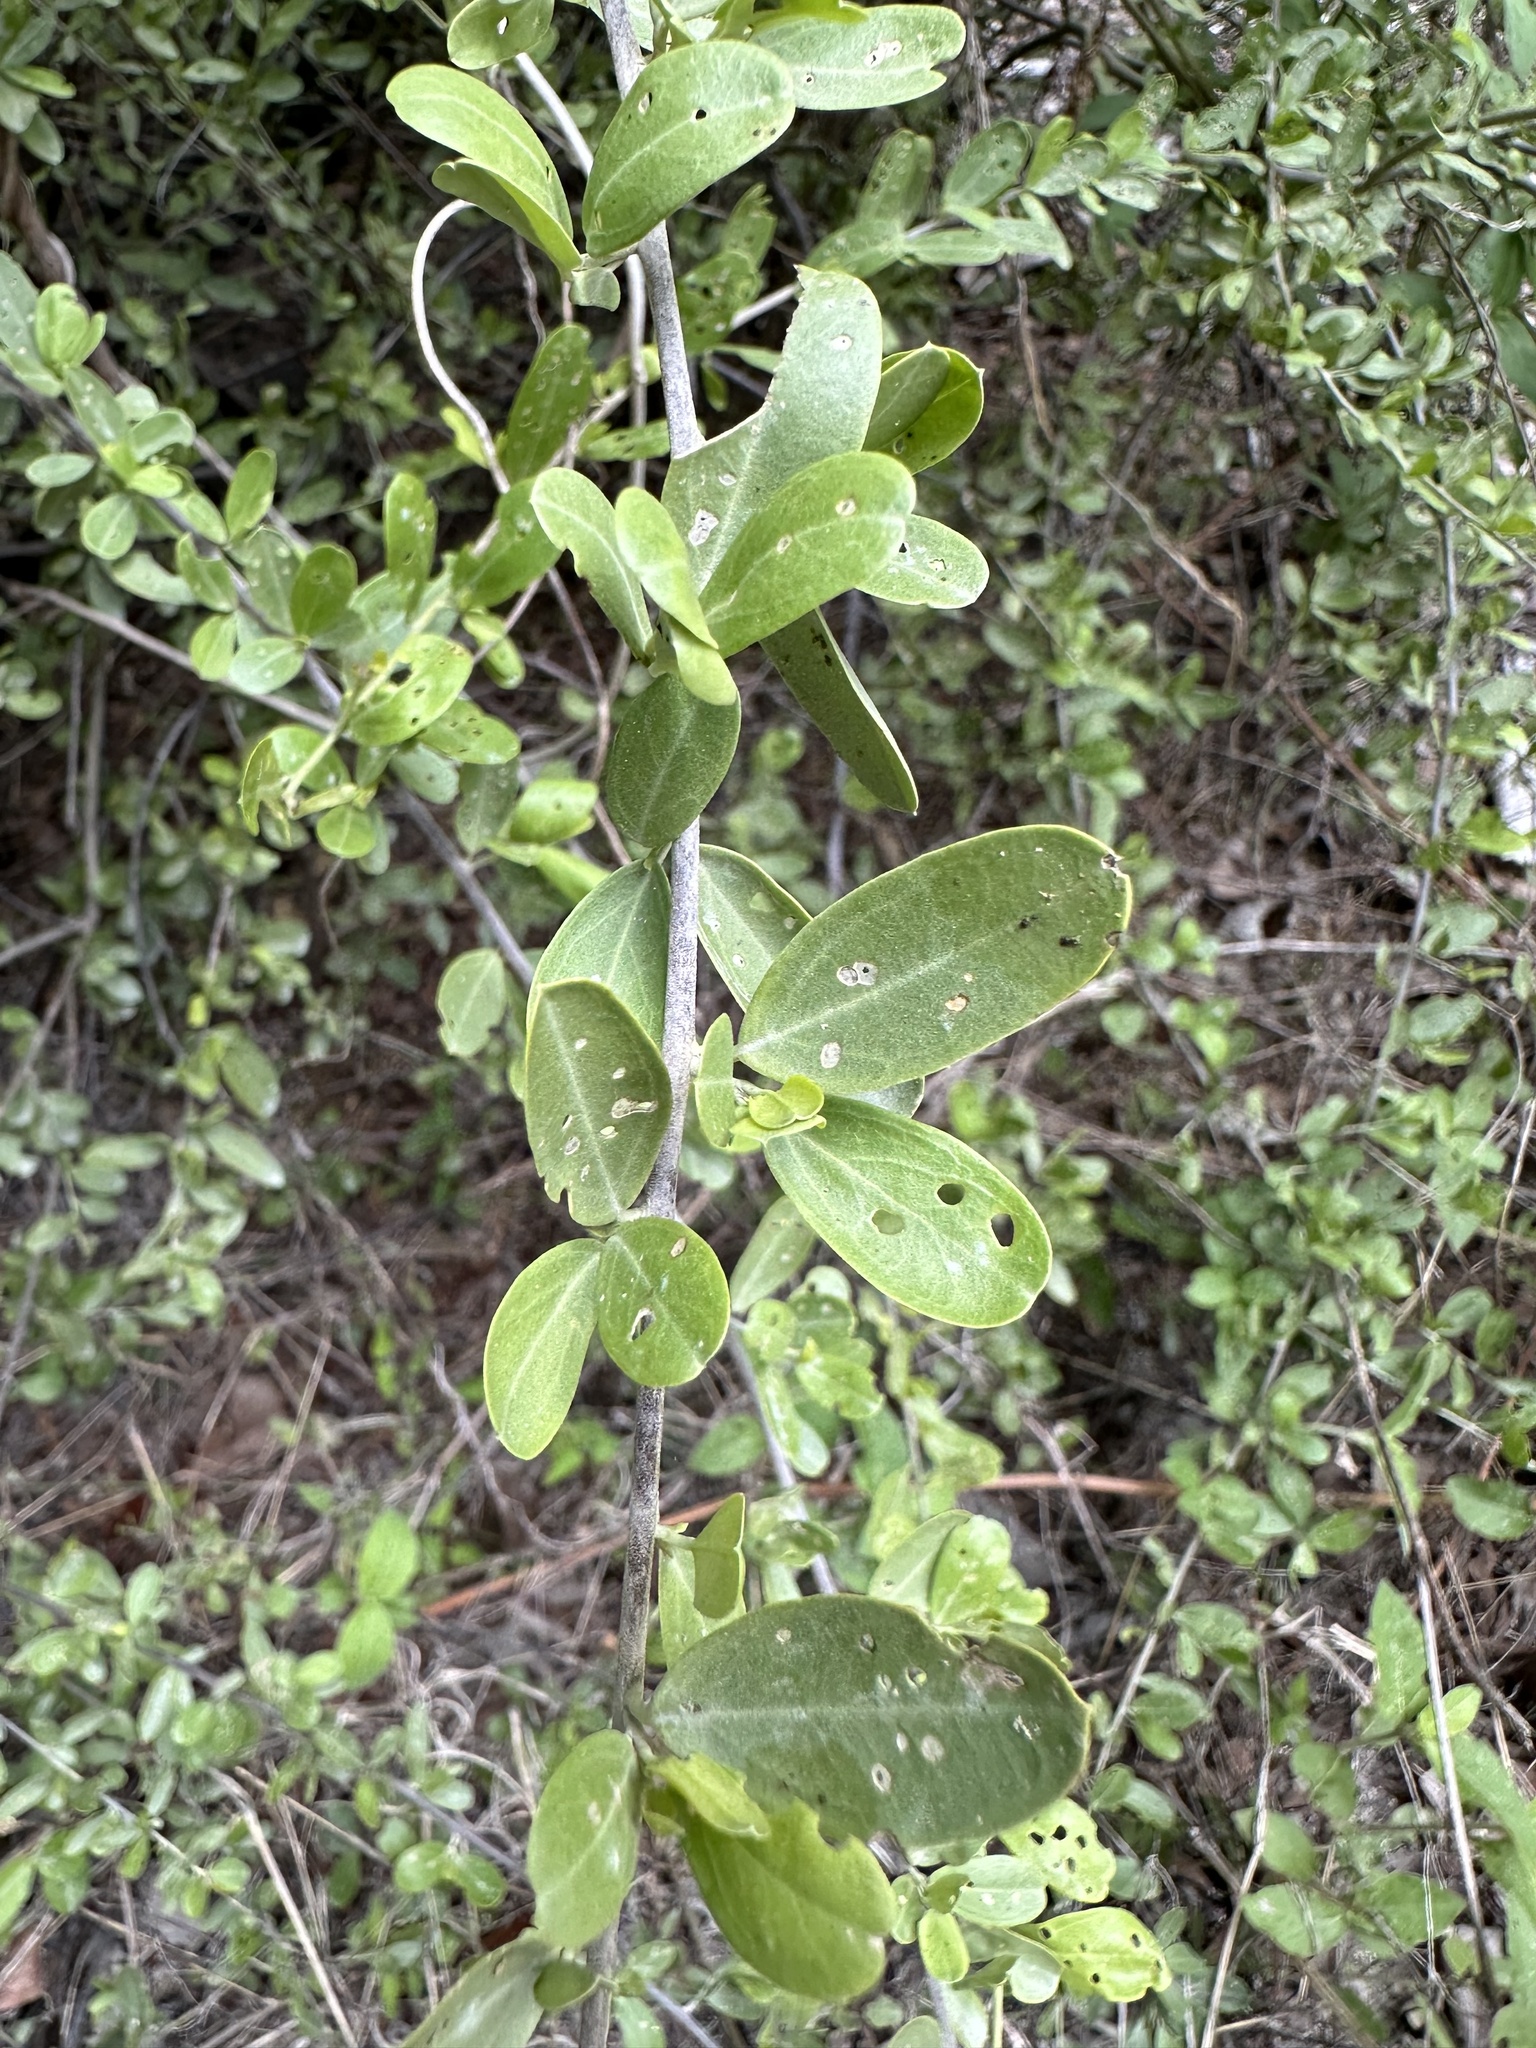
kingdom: Plantae
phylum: Tracheophyta
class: Magnoliopsida
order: Brassicales
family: Capparaceae
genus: Cadaba
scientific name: Cadaba natalensis
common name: Natal worm bush
